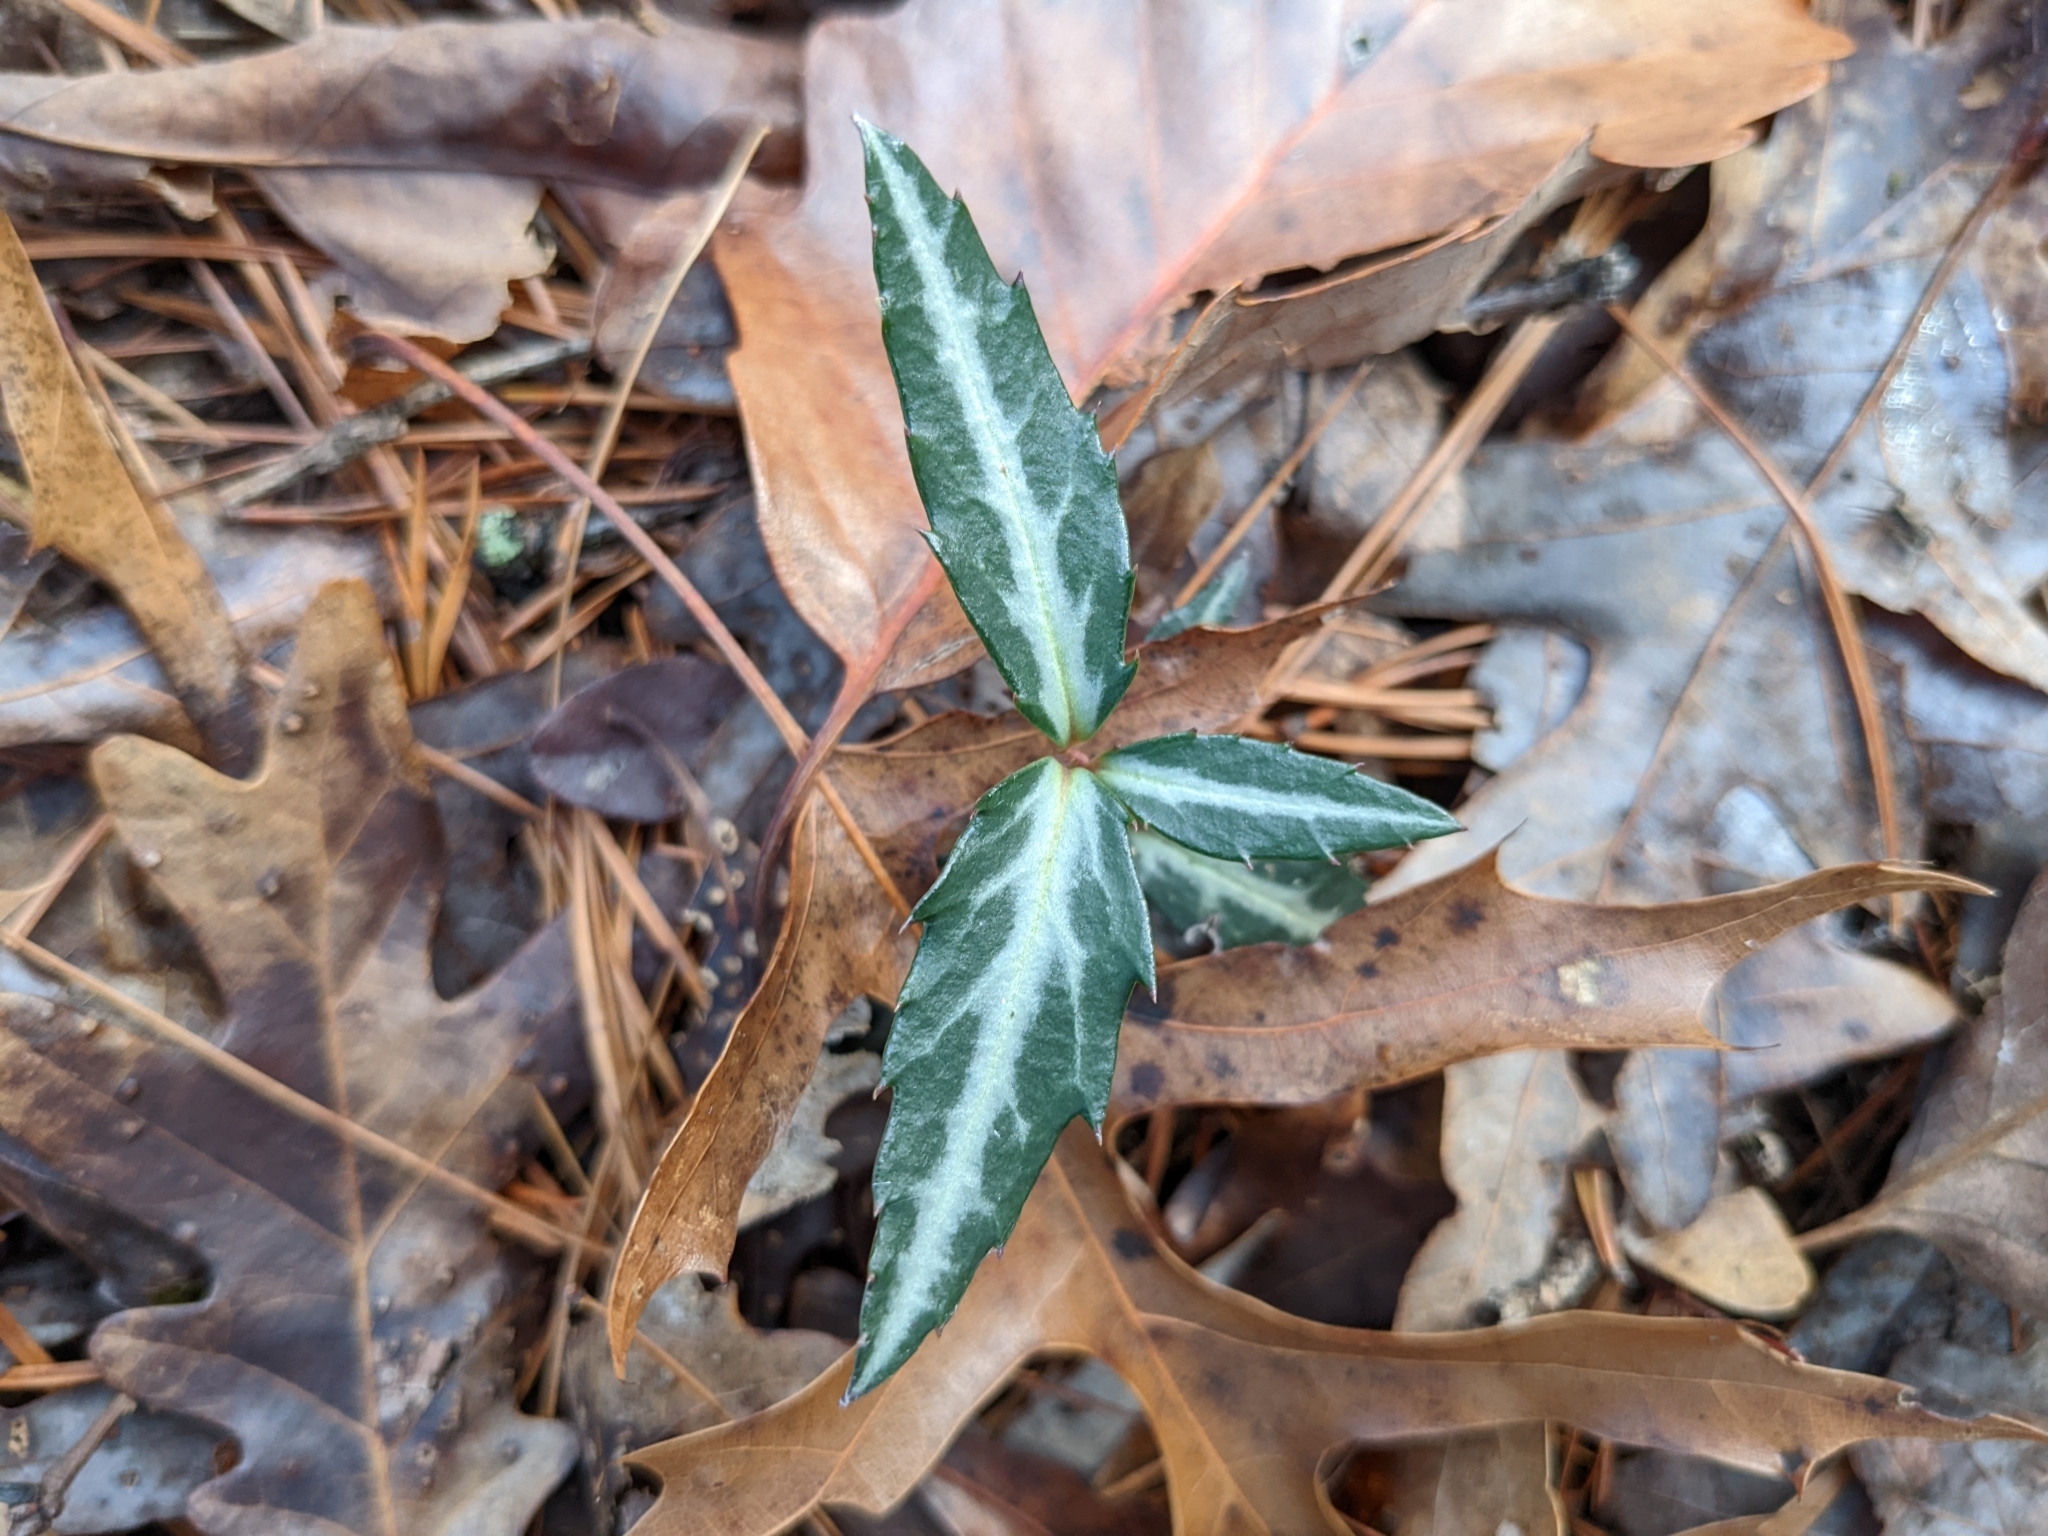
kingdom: Plantae
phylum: Tracheophyta
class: Magnoliopsida
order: Ericales
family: Ericaceae
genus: Chimaphila
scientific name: Chimaphila maculata
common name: Spotted pipsissewa
